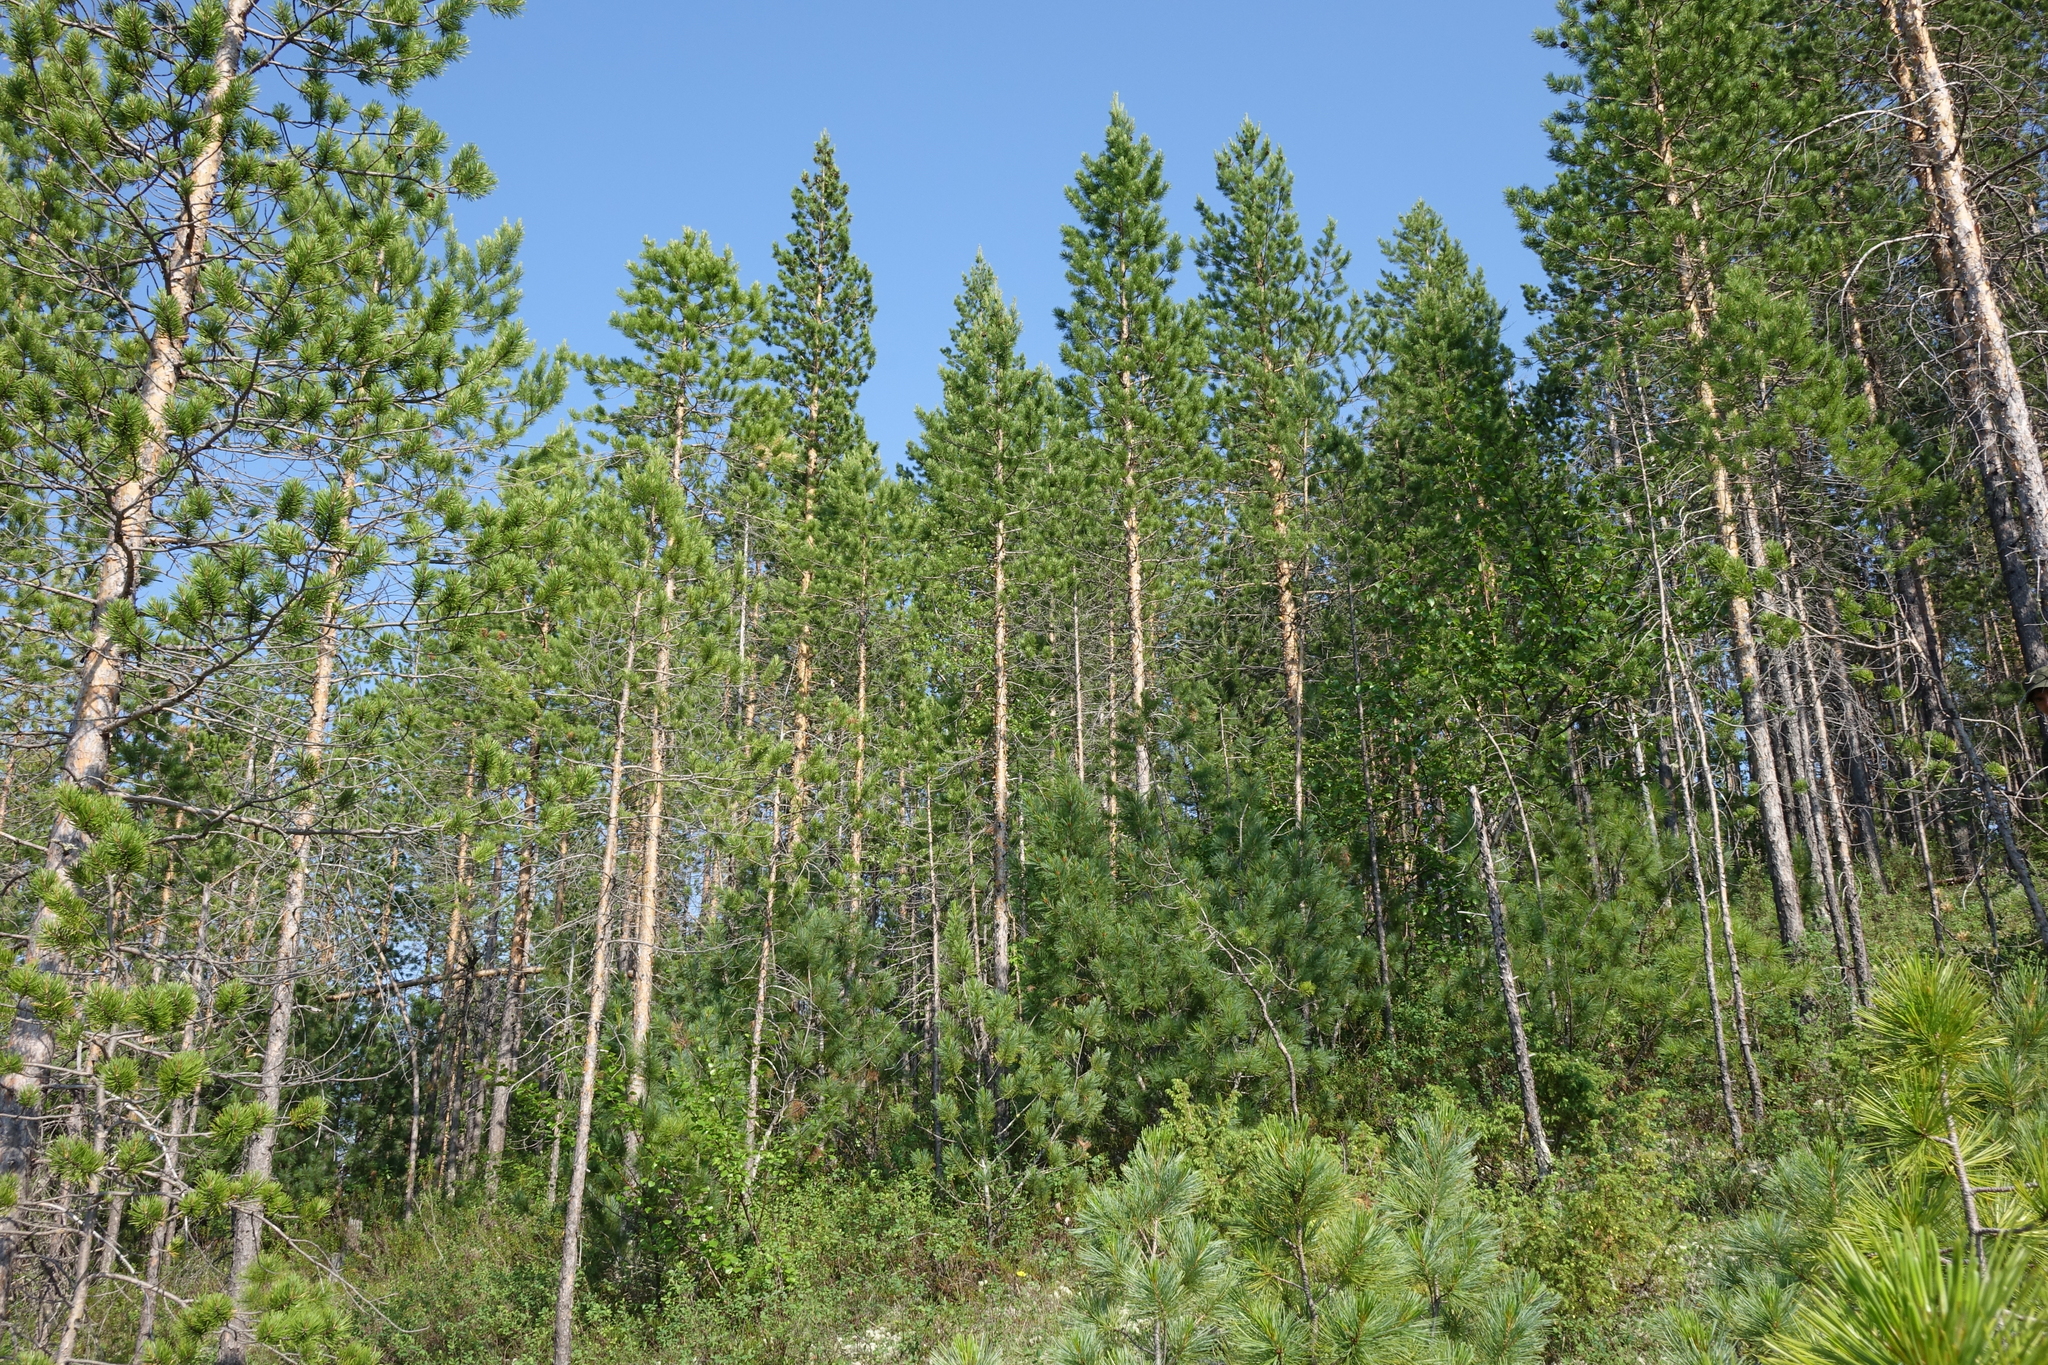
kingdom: Plantae
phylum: Tracheophyta
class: Pinopsida
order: Pinales
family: Pinaceae
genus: Pinus
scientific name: Pinus sylvestris
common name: Scots pine
